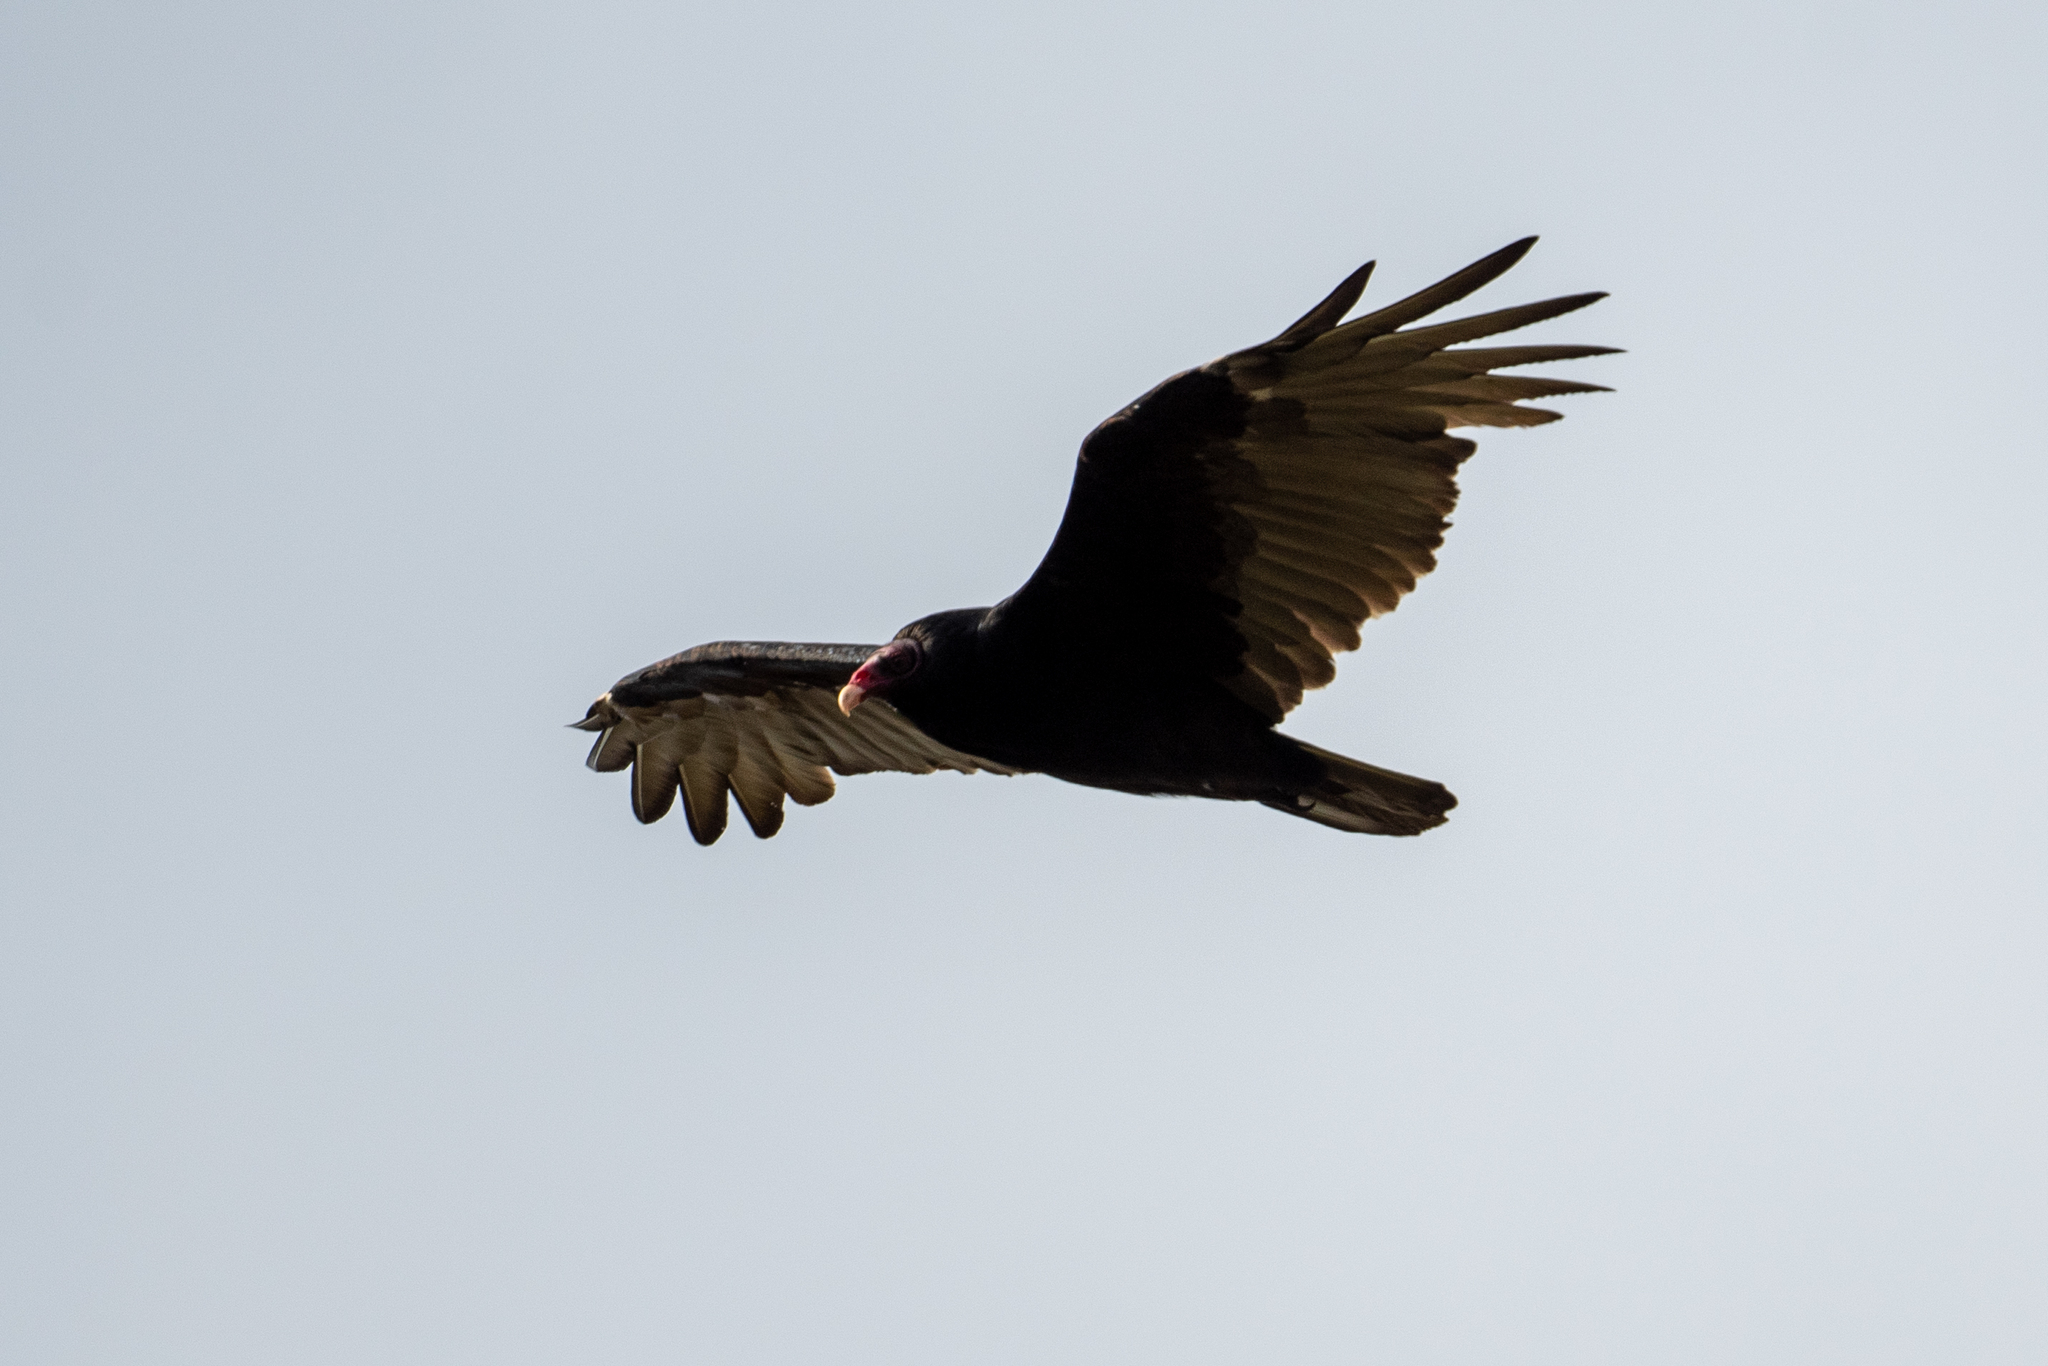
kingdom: Animalia
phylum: Chordata
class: Aves
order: Accipitriformes
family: Cathartidae
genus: Cathartes
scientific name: Cathartes aura
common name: Turkey vulture
